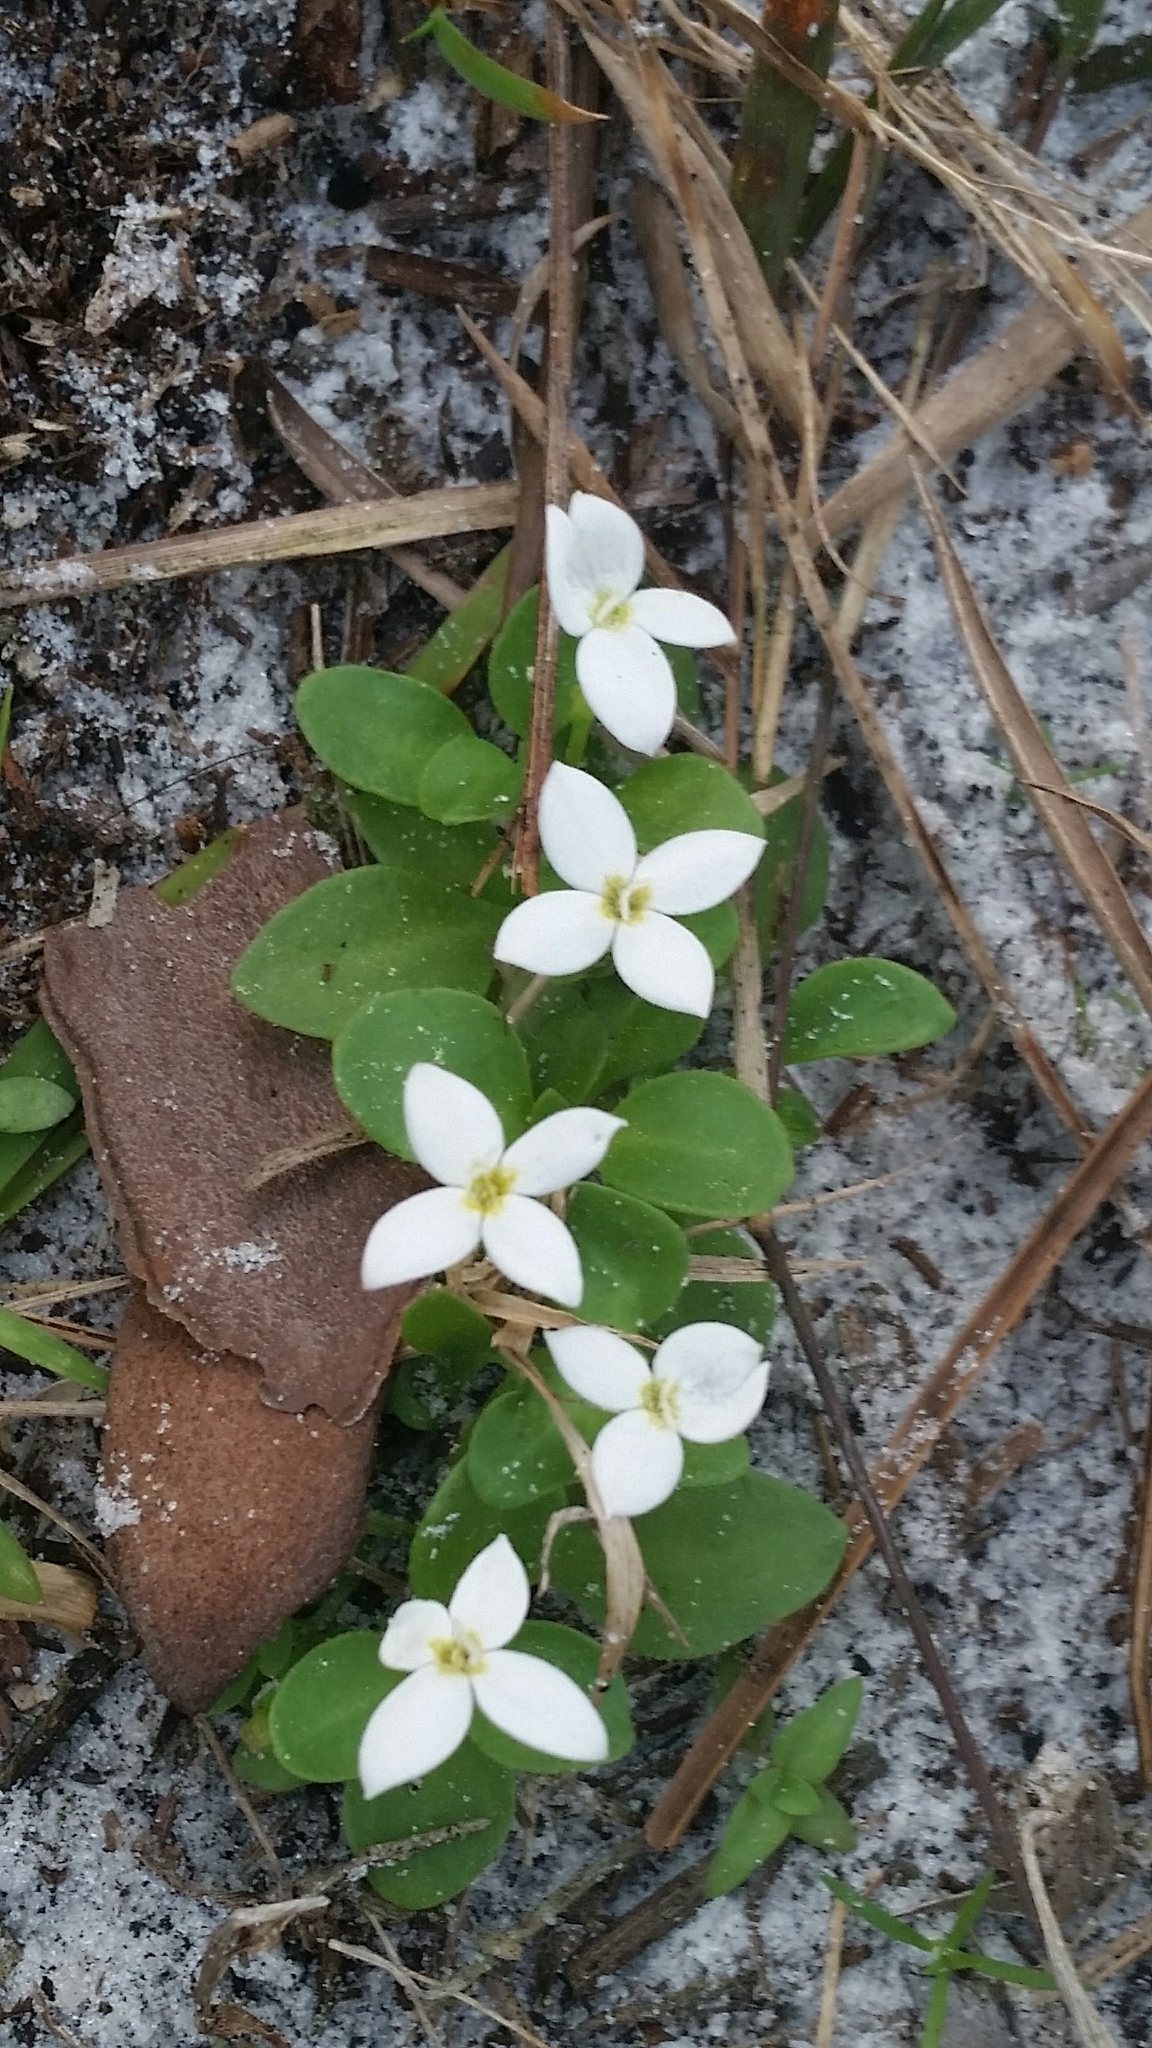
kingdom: Plantae
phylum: Tracheophyta
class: Magnoliopsida
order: Gentianales
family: Rubiaceae
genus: Houstonia
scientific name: Houstonia procumbens
